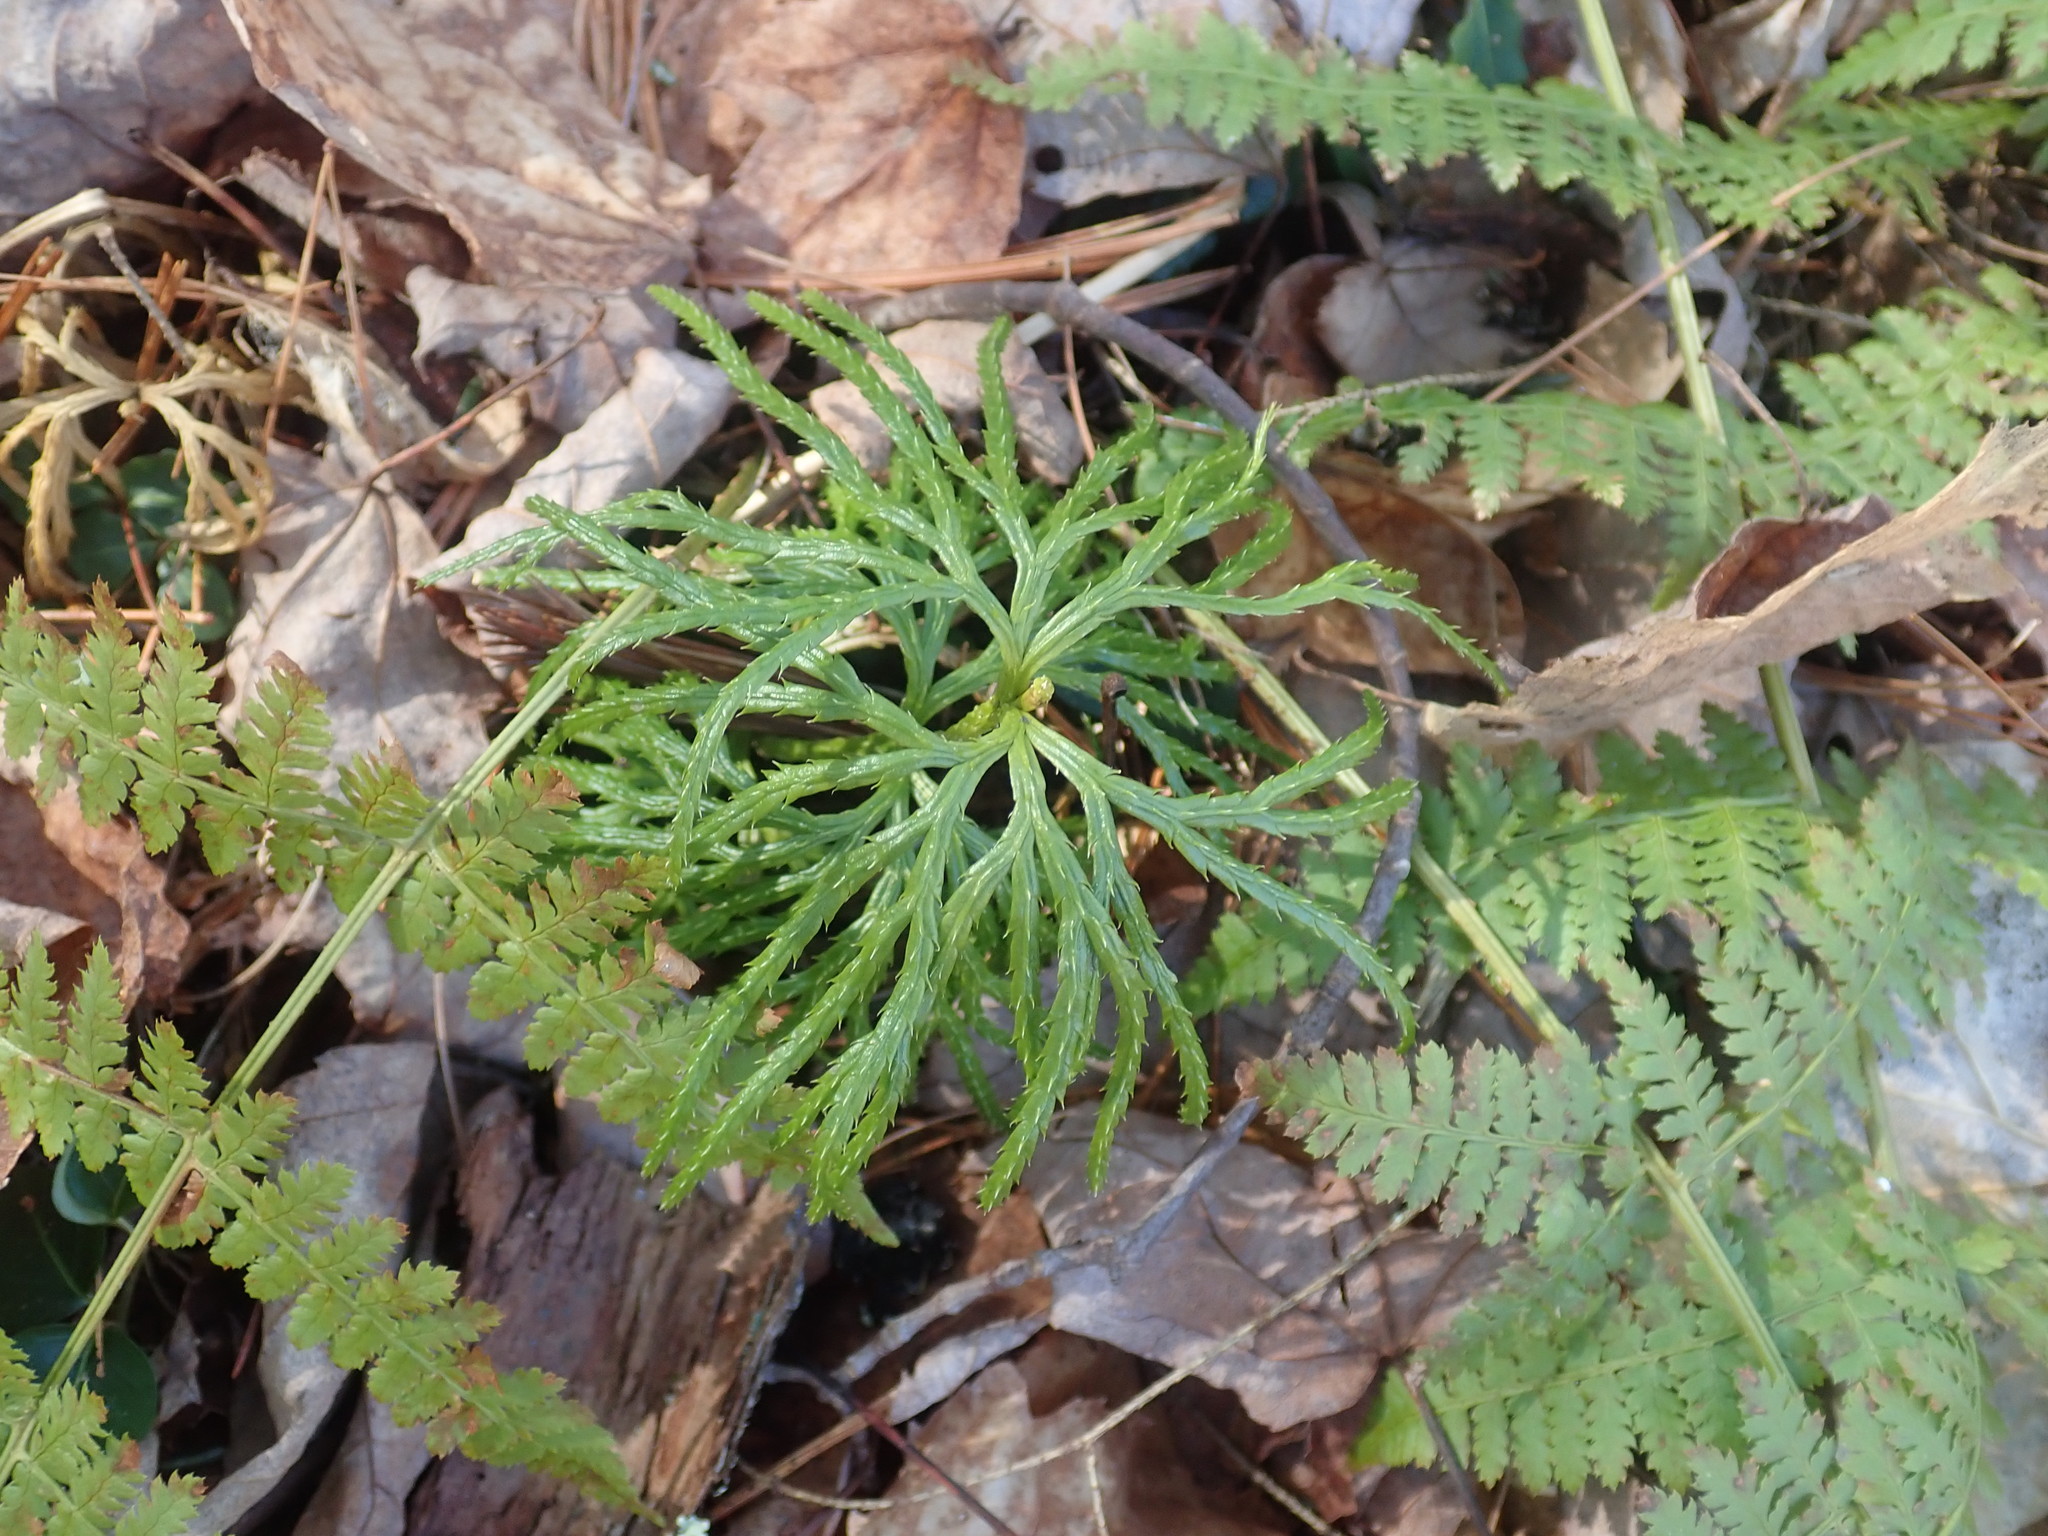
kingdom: Plantae
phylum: Tracheophyta
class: Lycopodiopsida
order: Lycopodiales
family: Lycopodiaceae
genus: Diphasiastrum
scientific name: Diphasiastrum digitatum
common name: Southern running-pine
